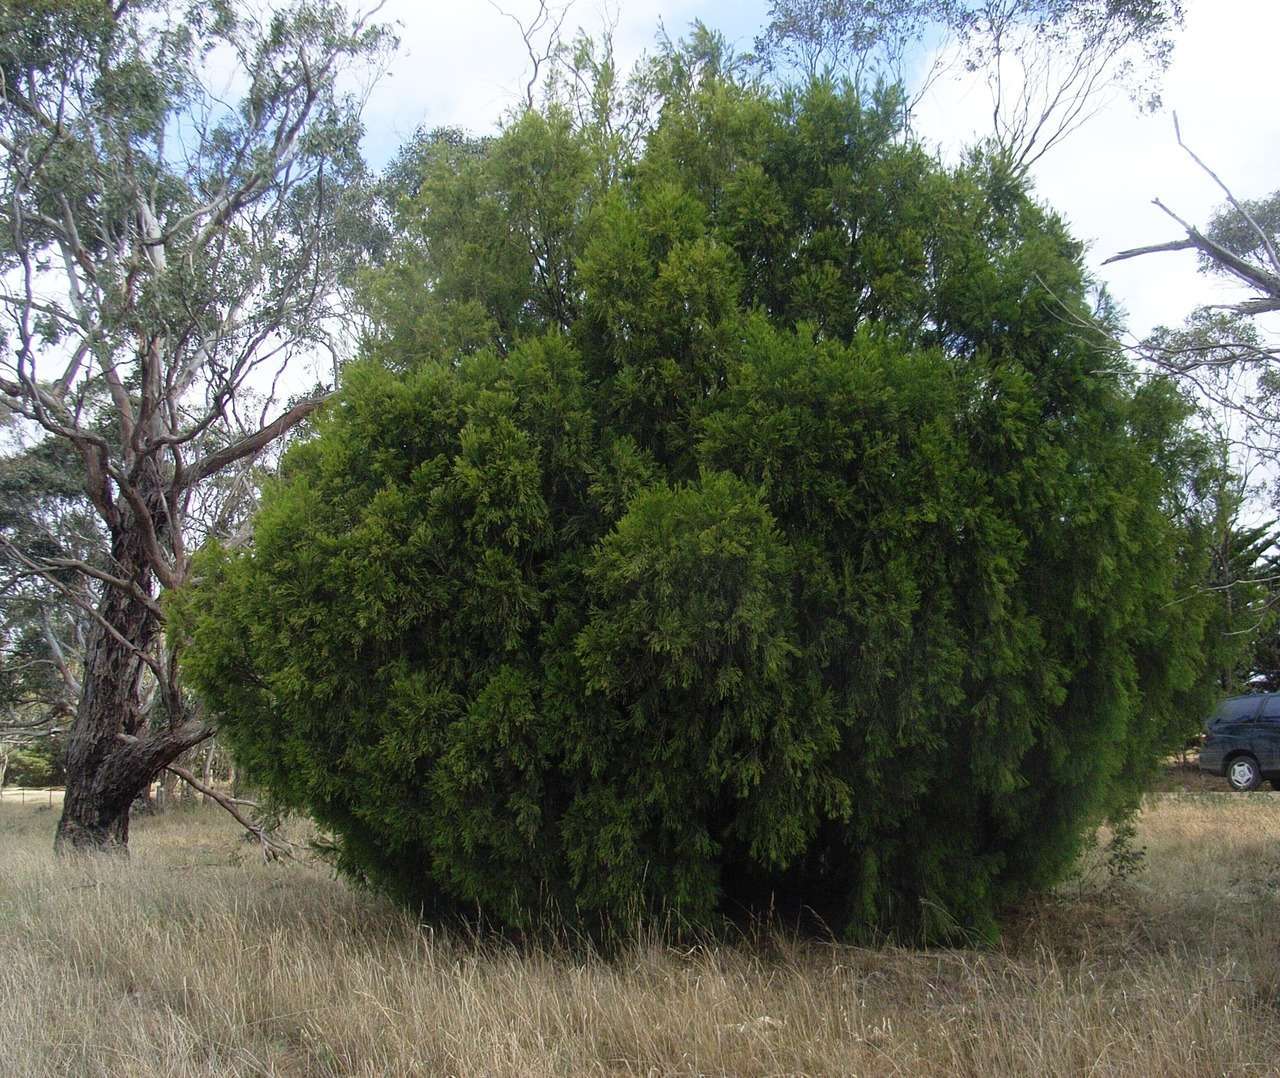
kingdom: Plantae
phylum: Tracheophyta
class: Magnoliopsida
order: Santalales
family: Santalaceae
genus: Exocarpos
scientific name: Exocarpos cupressiformis
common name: Cherry ballart
